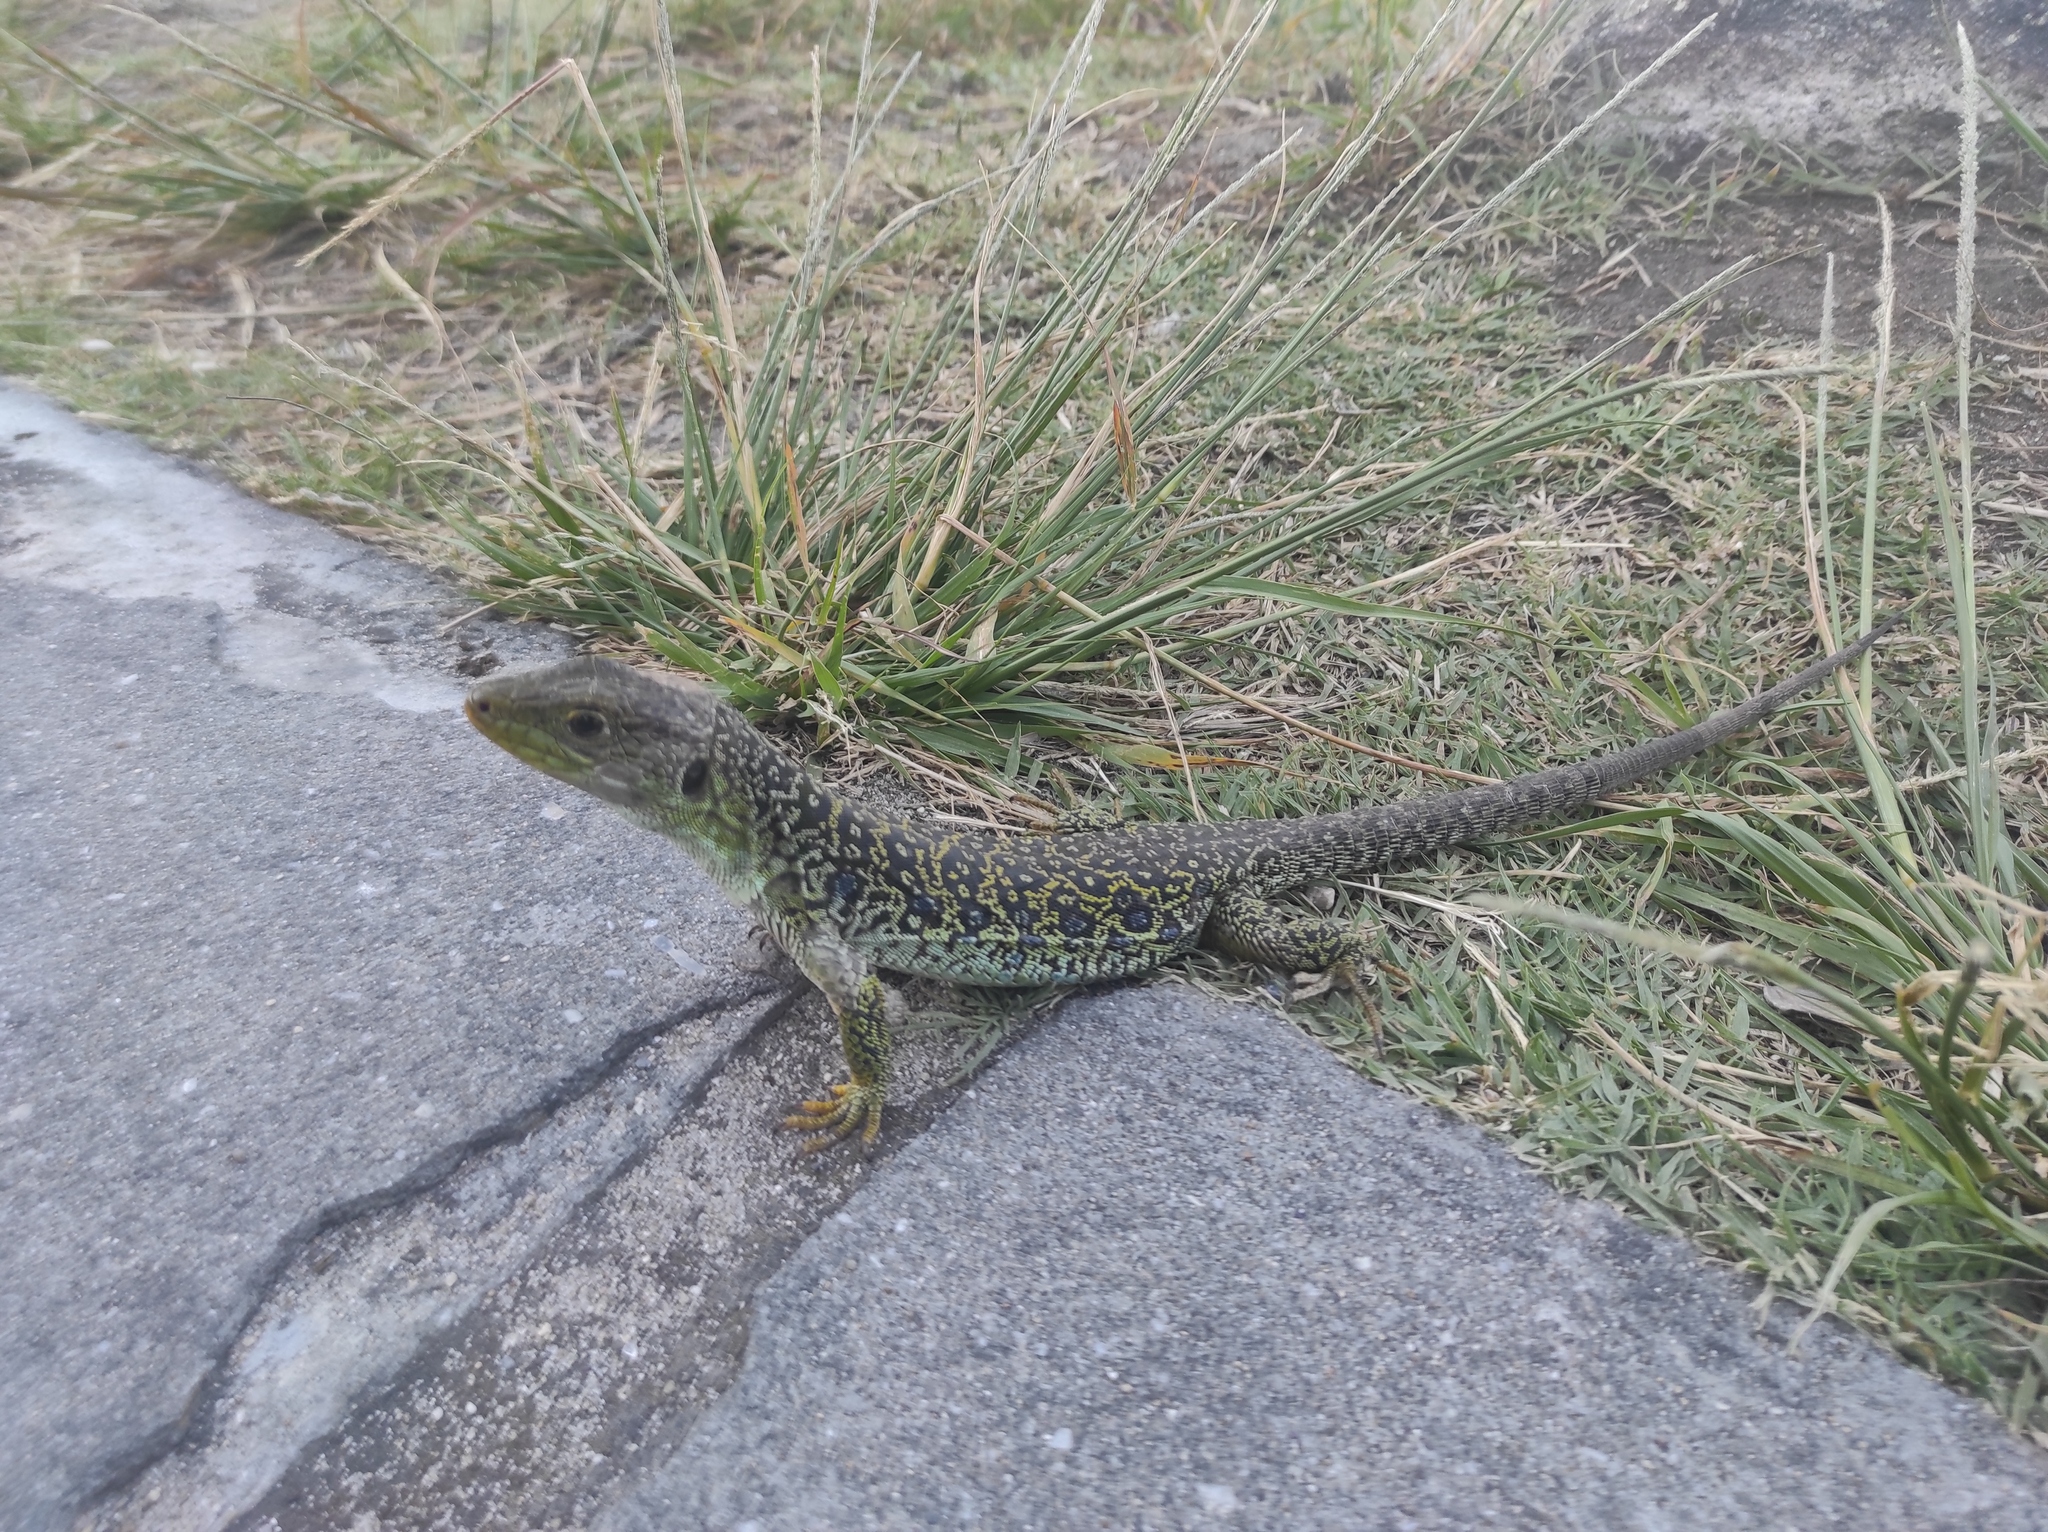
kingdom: Animalia
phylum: Chordata
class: Squamata
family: Lacertidae
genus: Timon
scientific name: Timon lepidus
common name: Ocellated lizard
